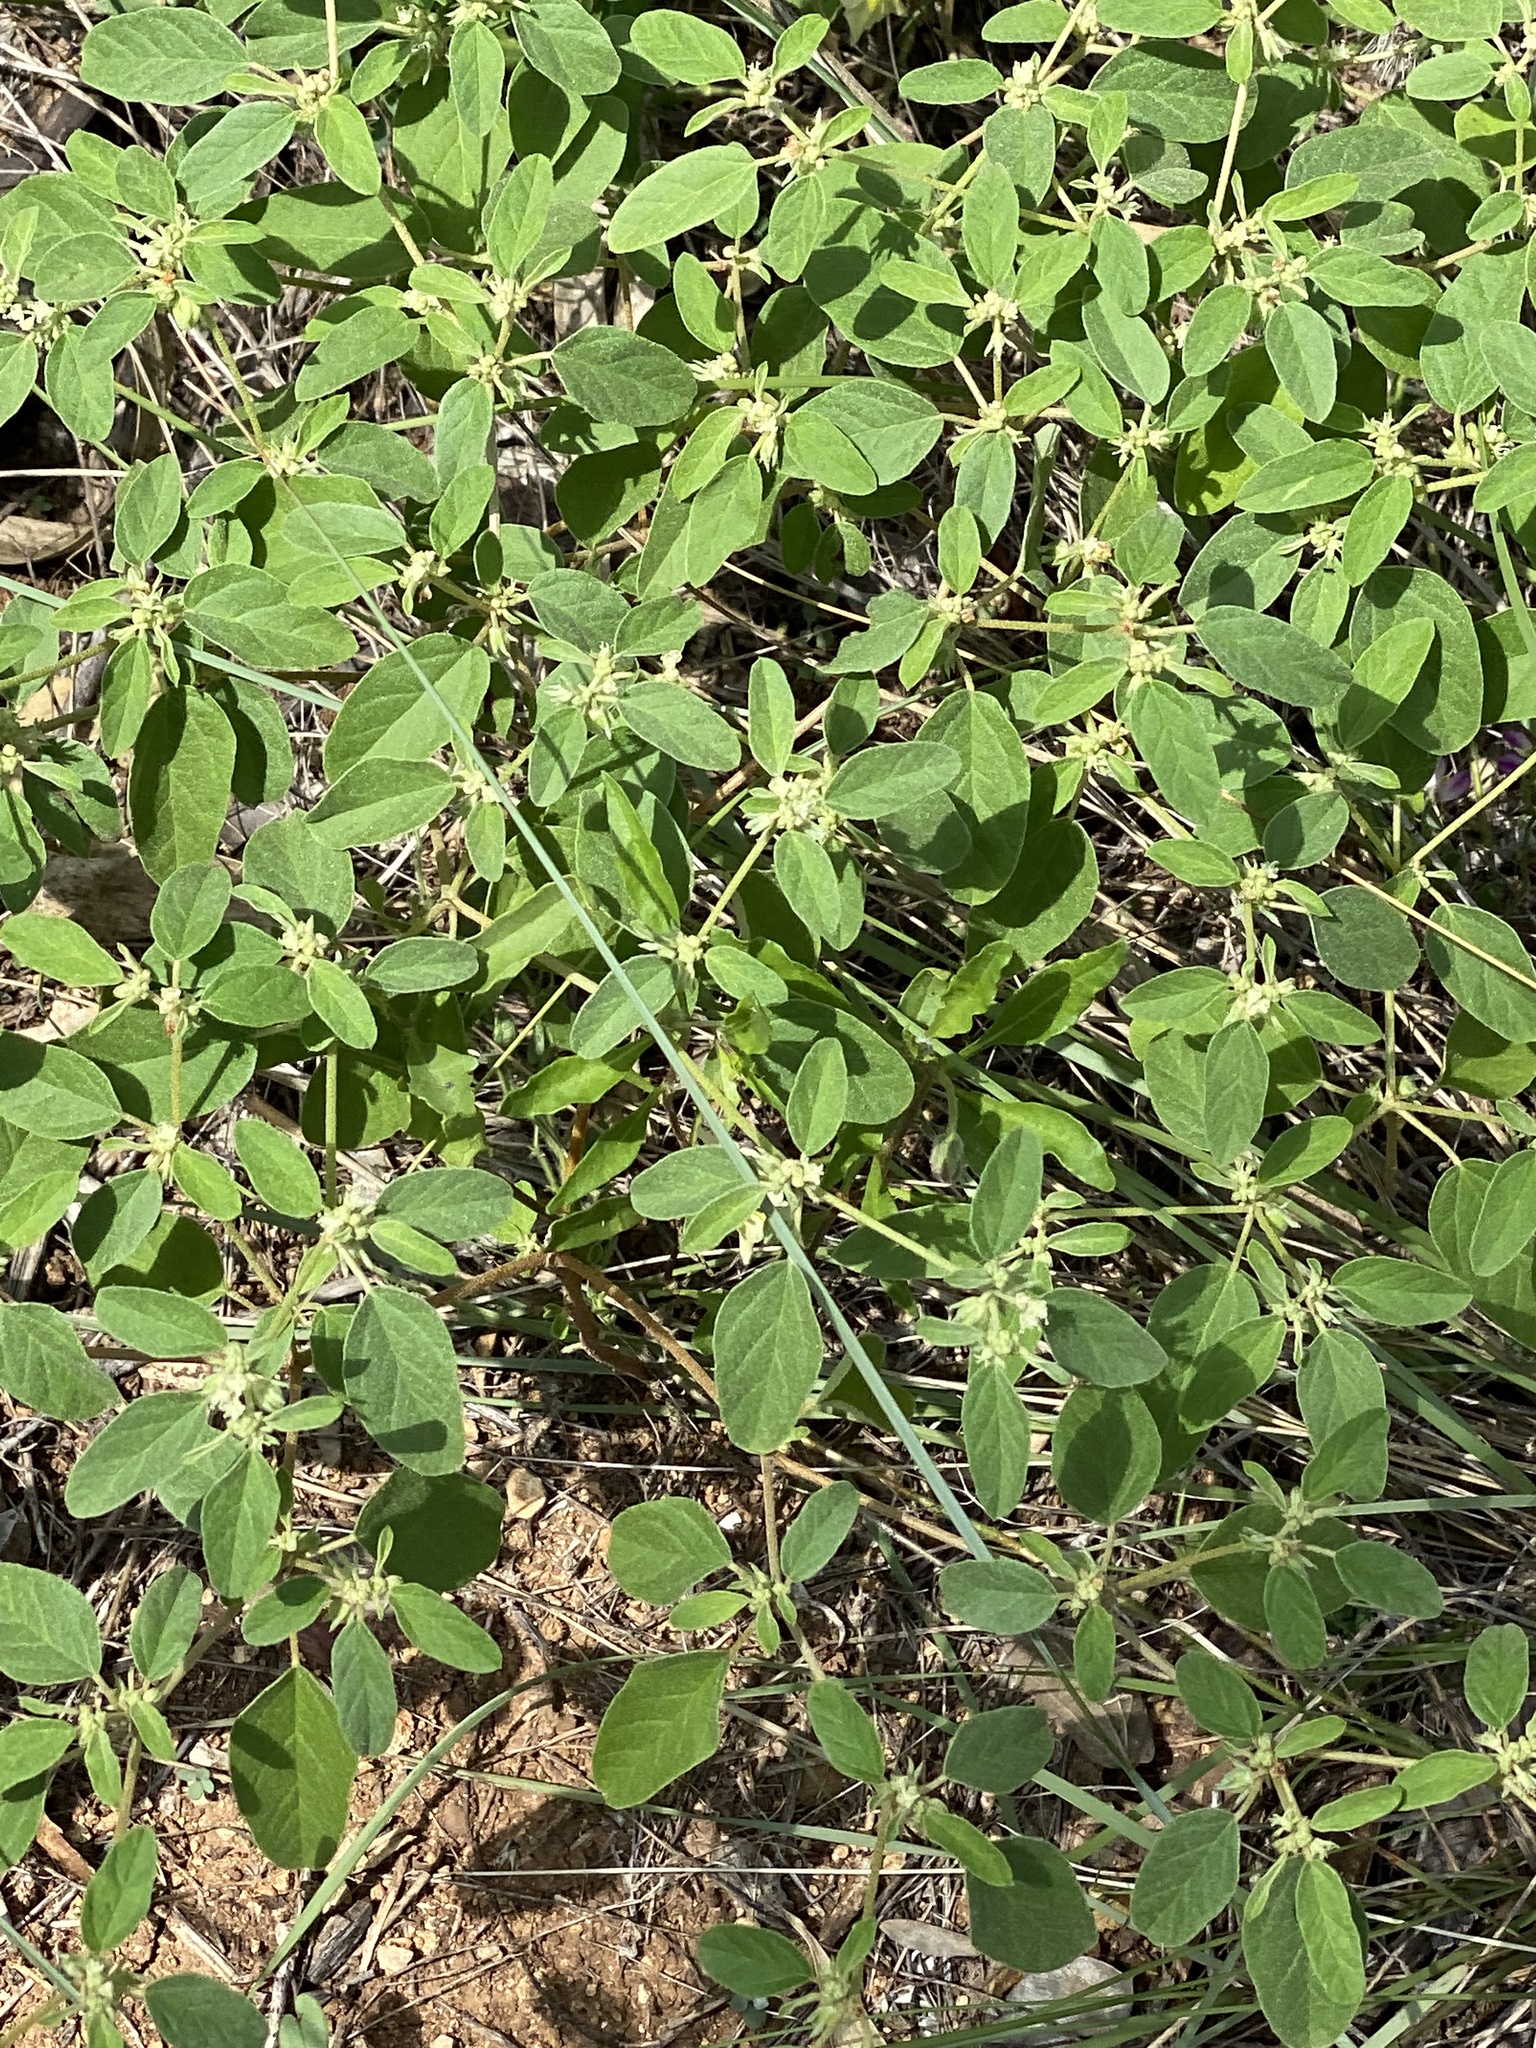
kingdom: Plantae
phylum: Tracheophyta
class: Magnoliopsida
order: Malpighiales
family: Euphorbiaceae
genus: Croton
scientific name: Croton monanthogynus
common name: One-seed croton
